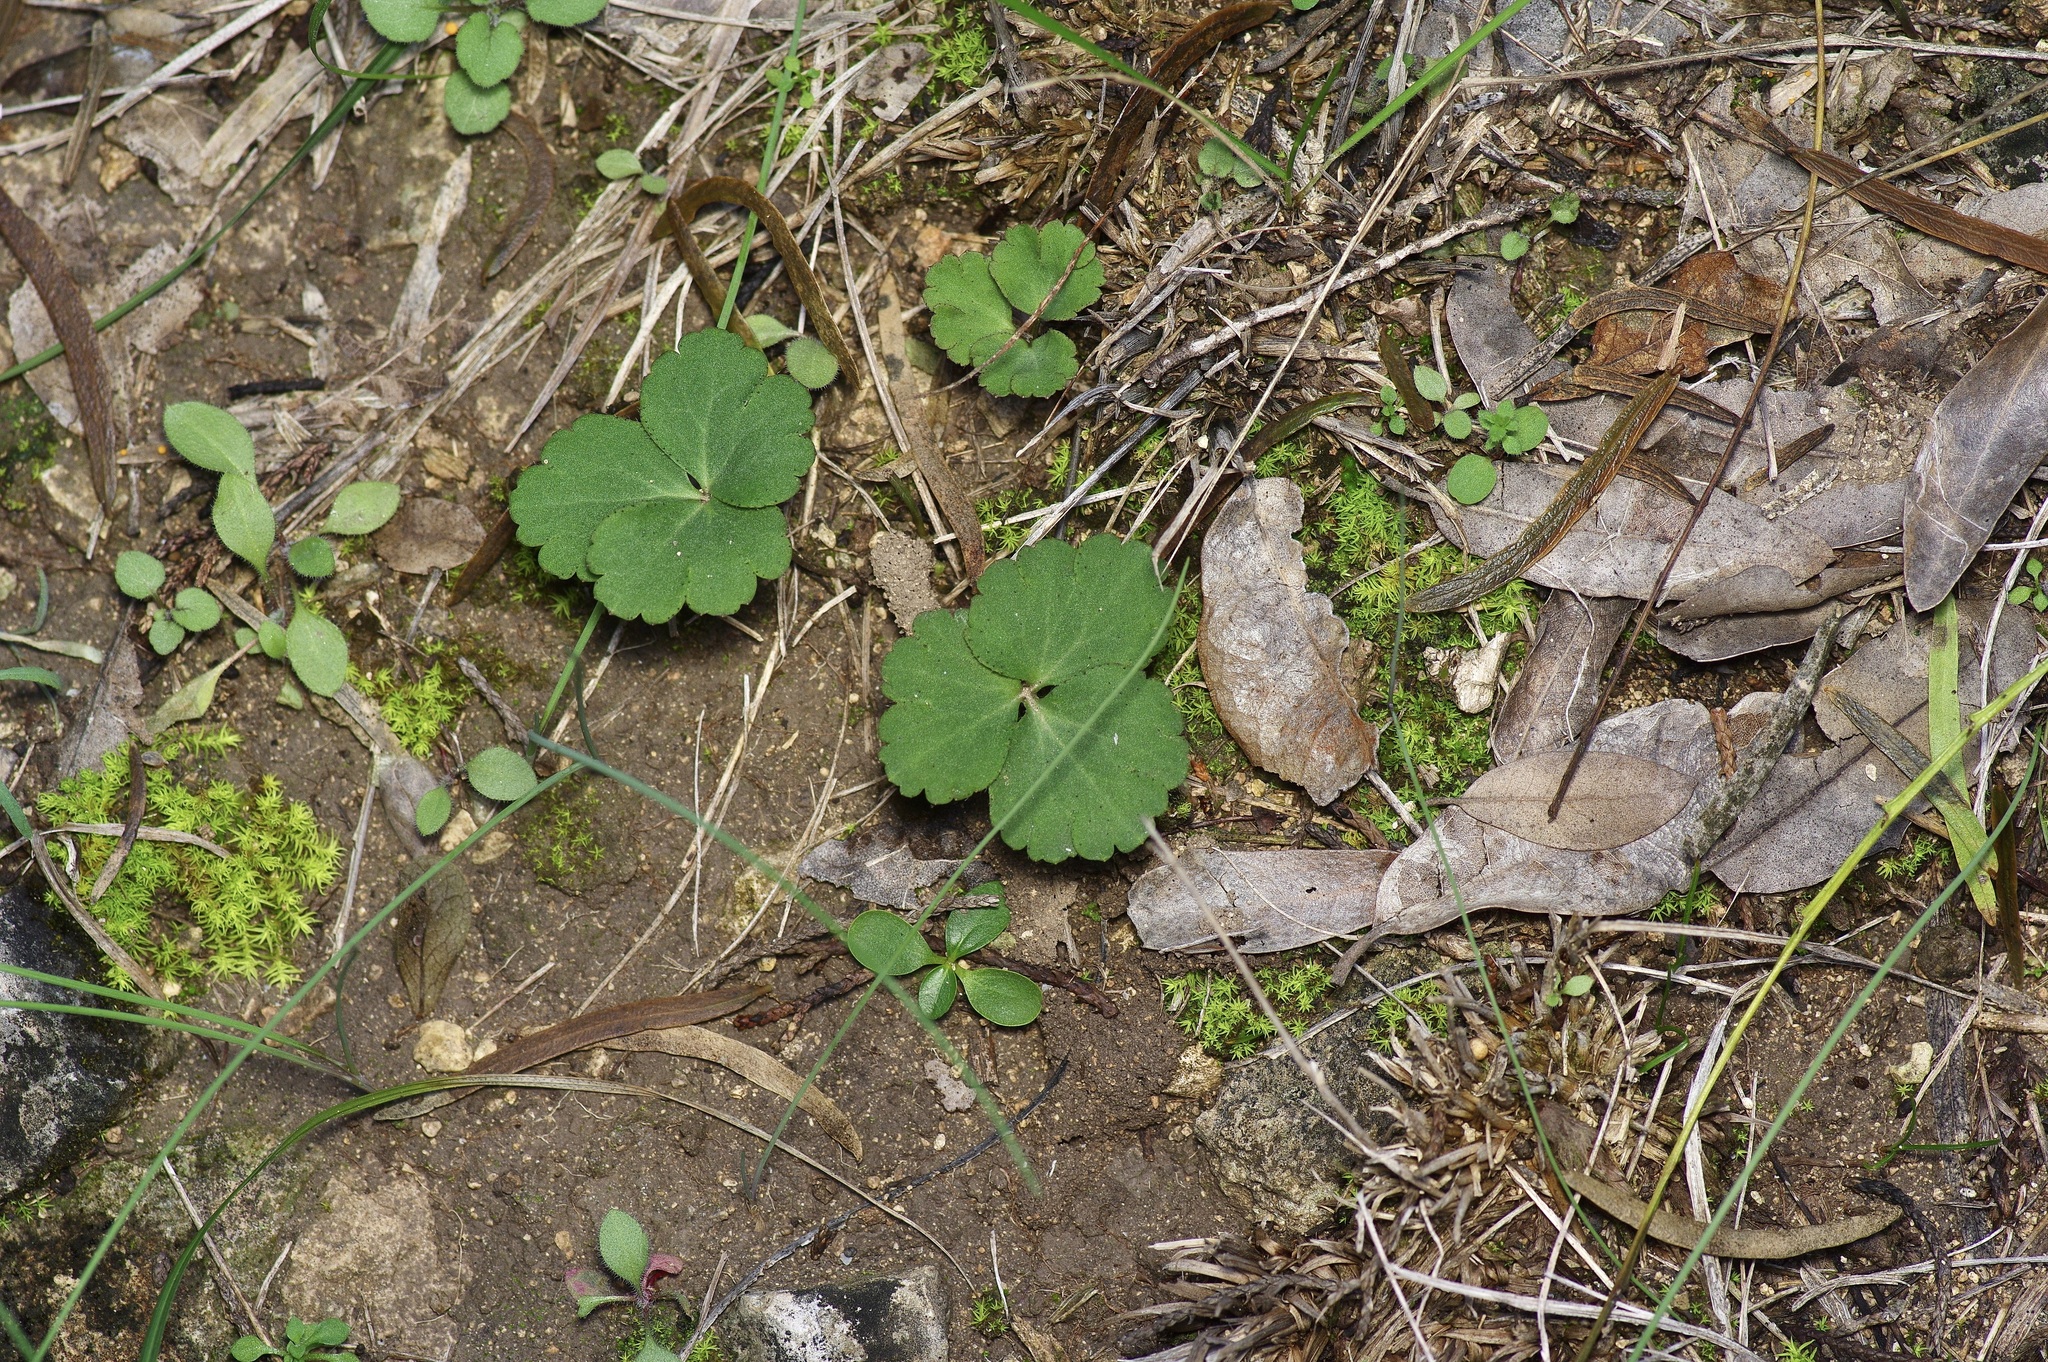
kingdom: Plantae
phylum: Tracheophyta
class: Magnoliopsida
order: Ranunculales
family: Ranunculaceae
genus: Anemone
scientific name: Anemone berlandieri
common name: Ten-petal anemone
